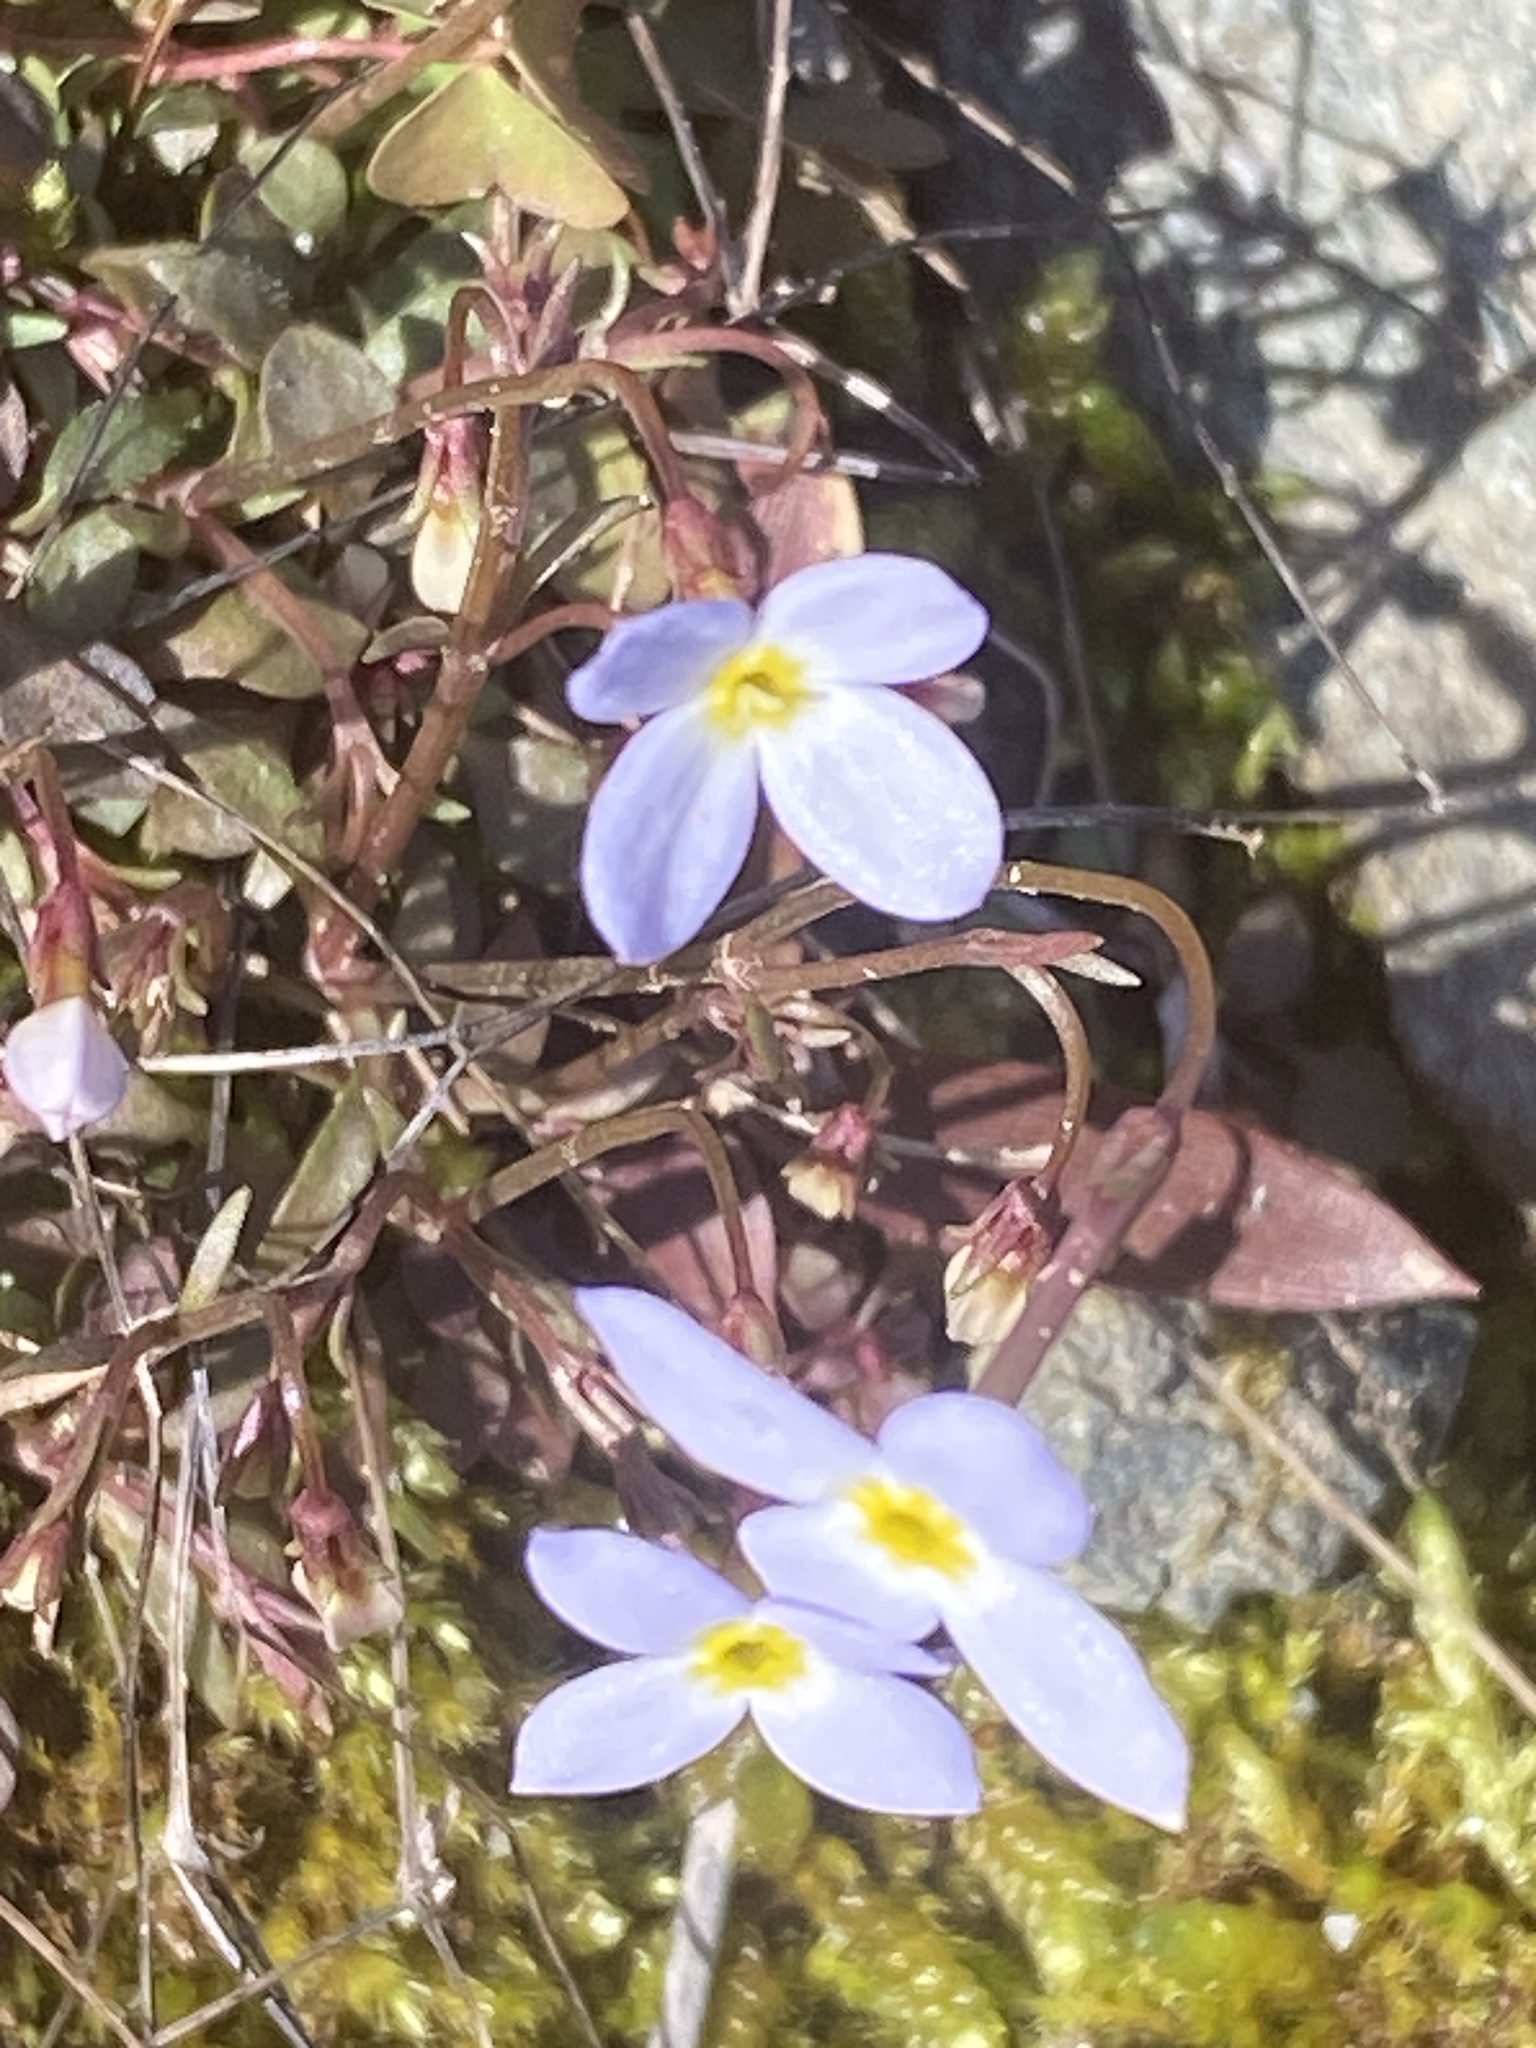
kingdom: Plantae
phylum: Tracheophyta
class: Magnoliopsida
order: Gentianales
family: Rubiaceae
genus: Houstonia
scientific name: Houstonia caerulea
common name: Bluets
